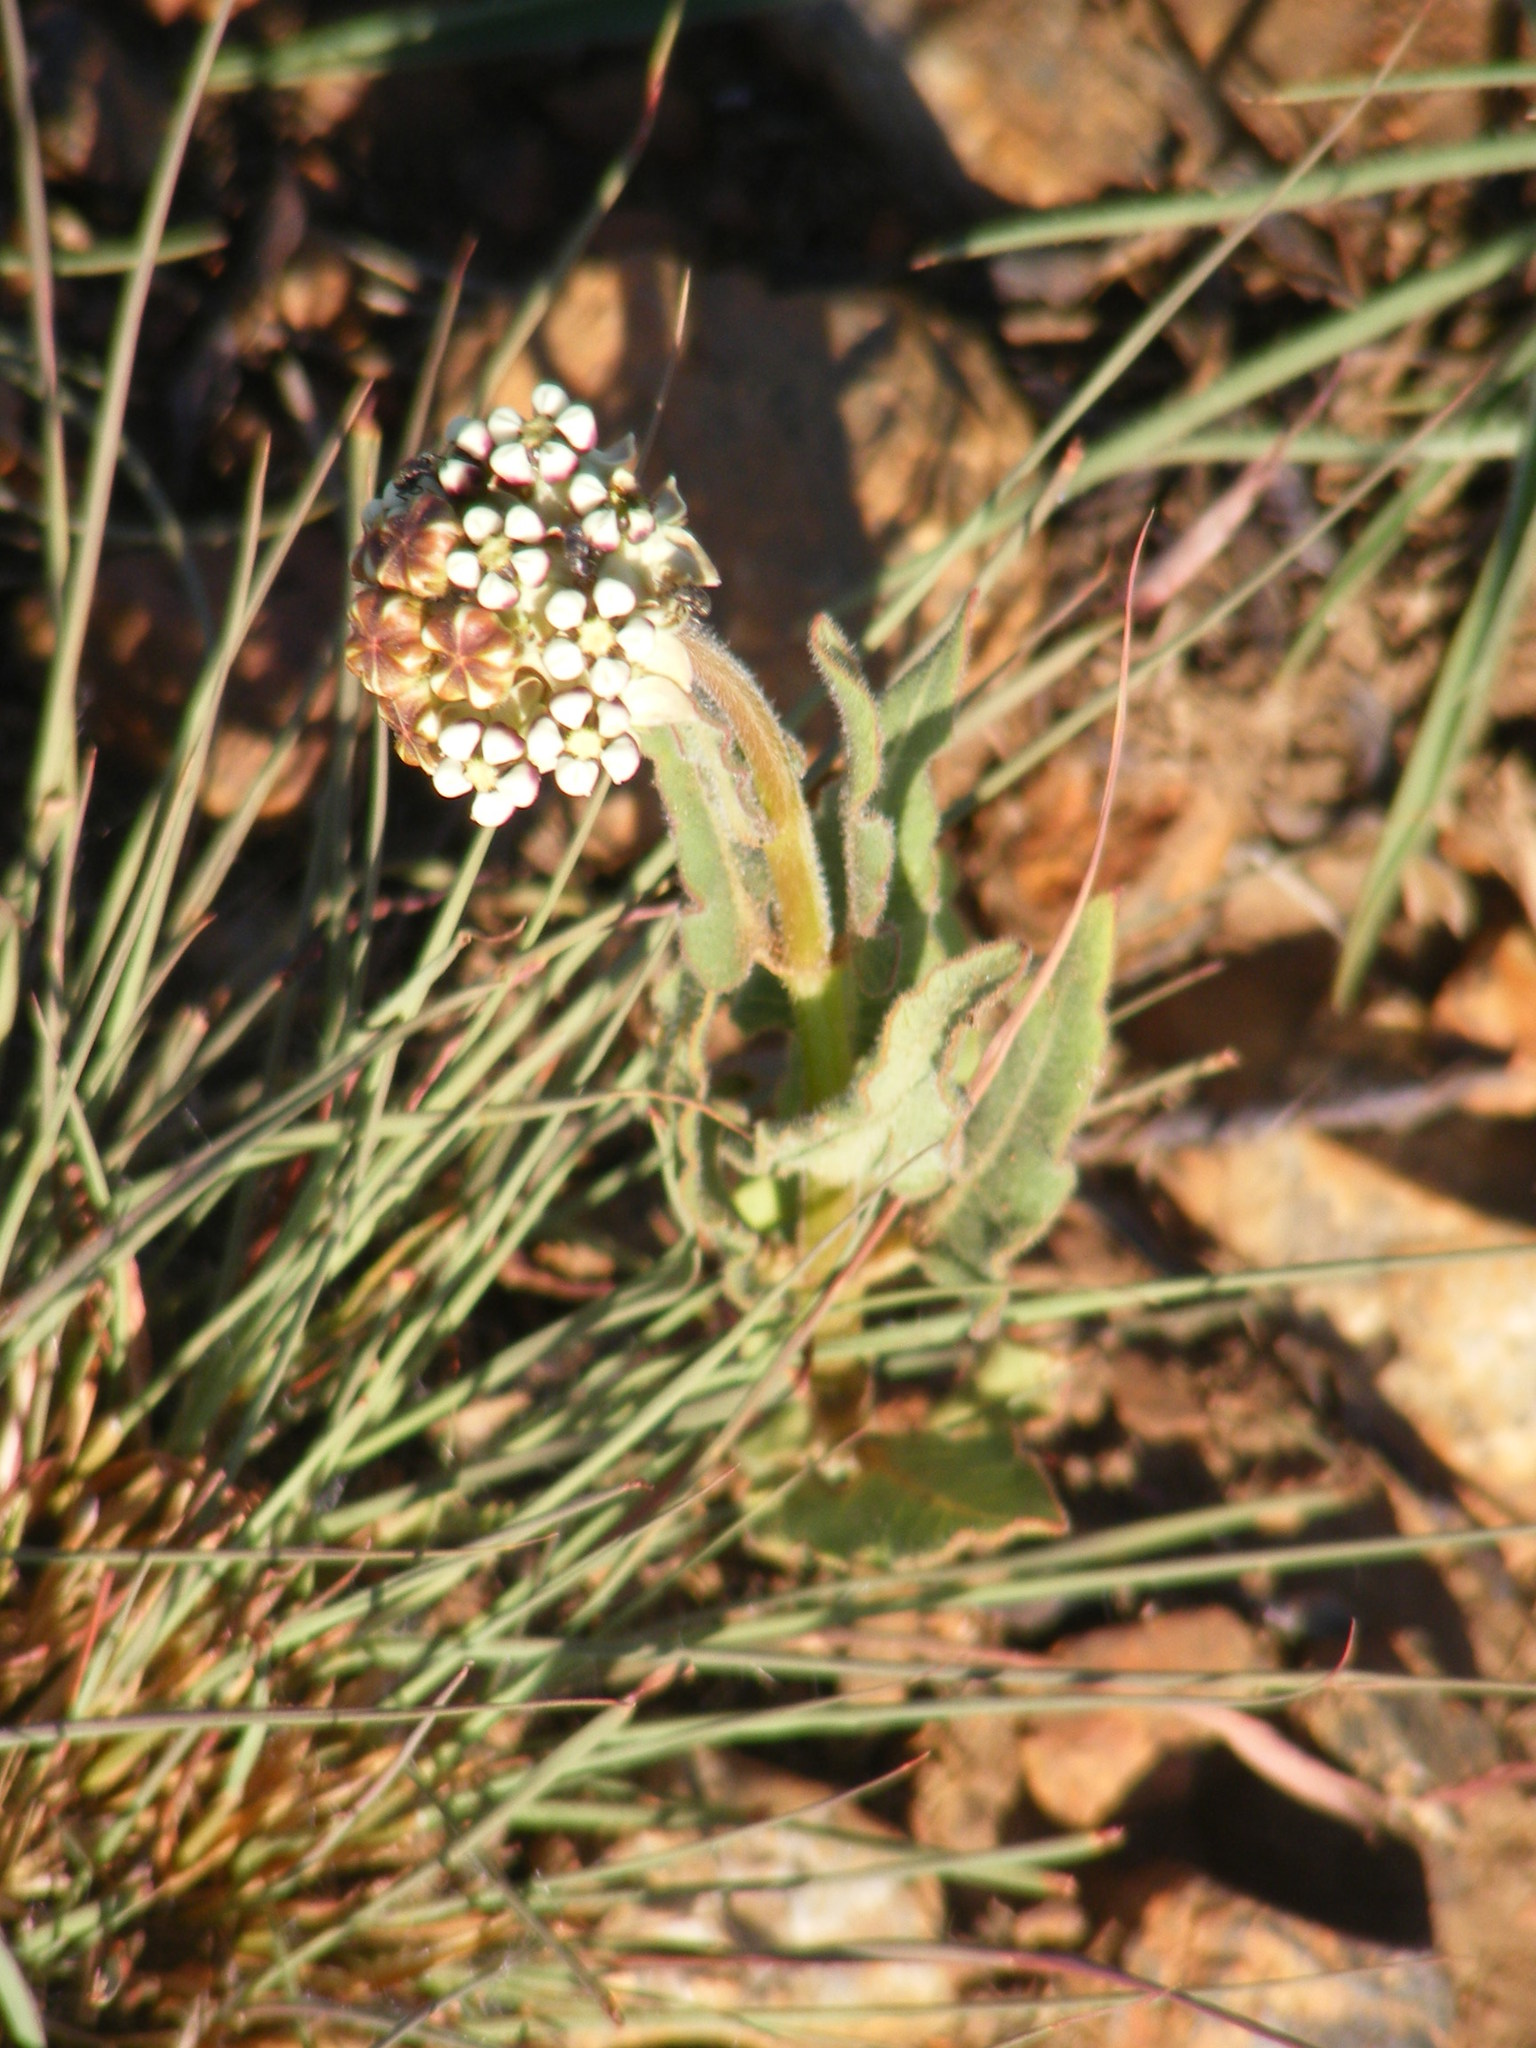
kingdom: Plantae
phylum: Tracheophyta
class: Magnoliopsida
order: Gentianales
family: Apocynaceae
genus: Asclepias
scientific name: Asclepias fallax
